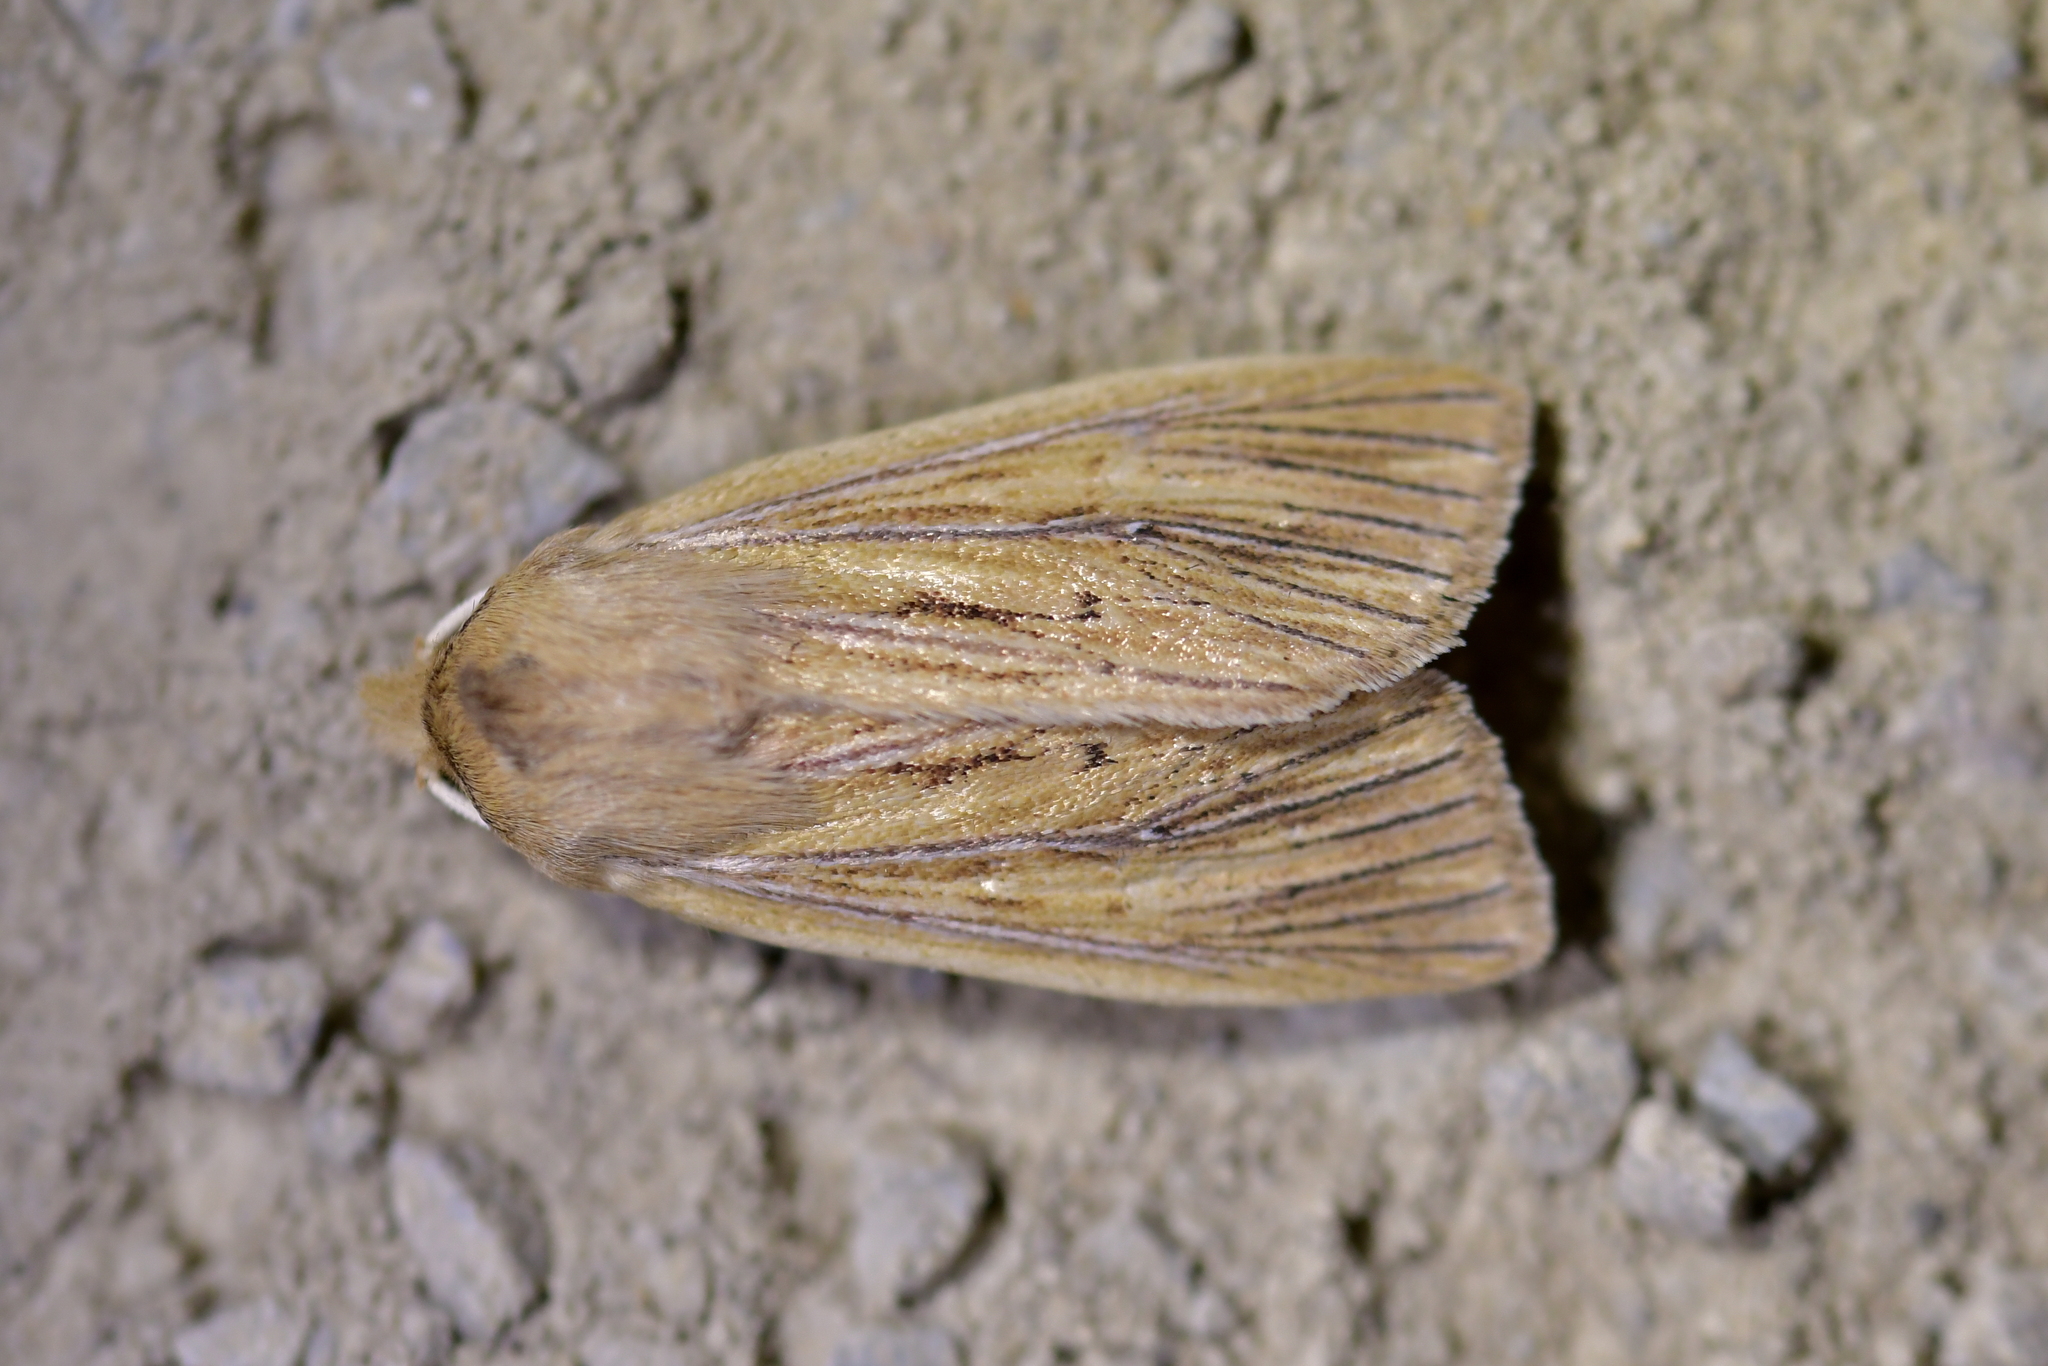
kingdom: Animalia
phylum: Arthropoda
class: Insecta
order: Lepidoptera
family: Noctuidae
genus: Ichneutica
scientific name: Ichneutica arotis
